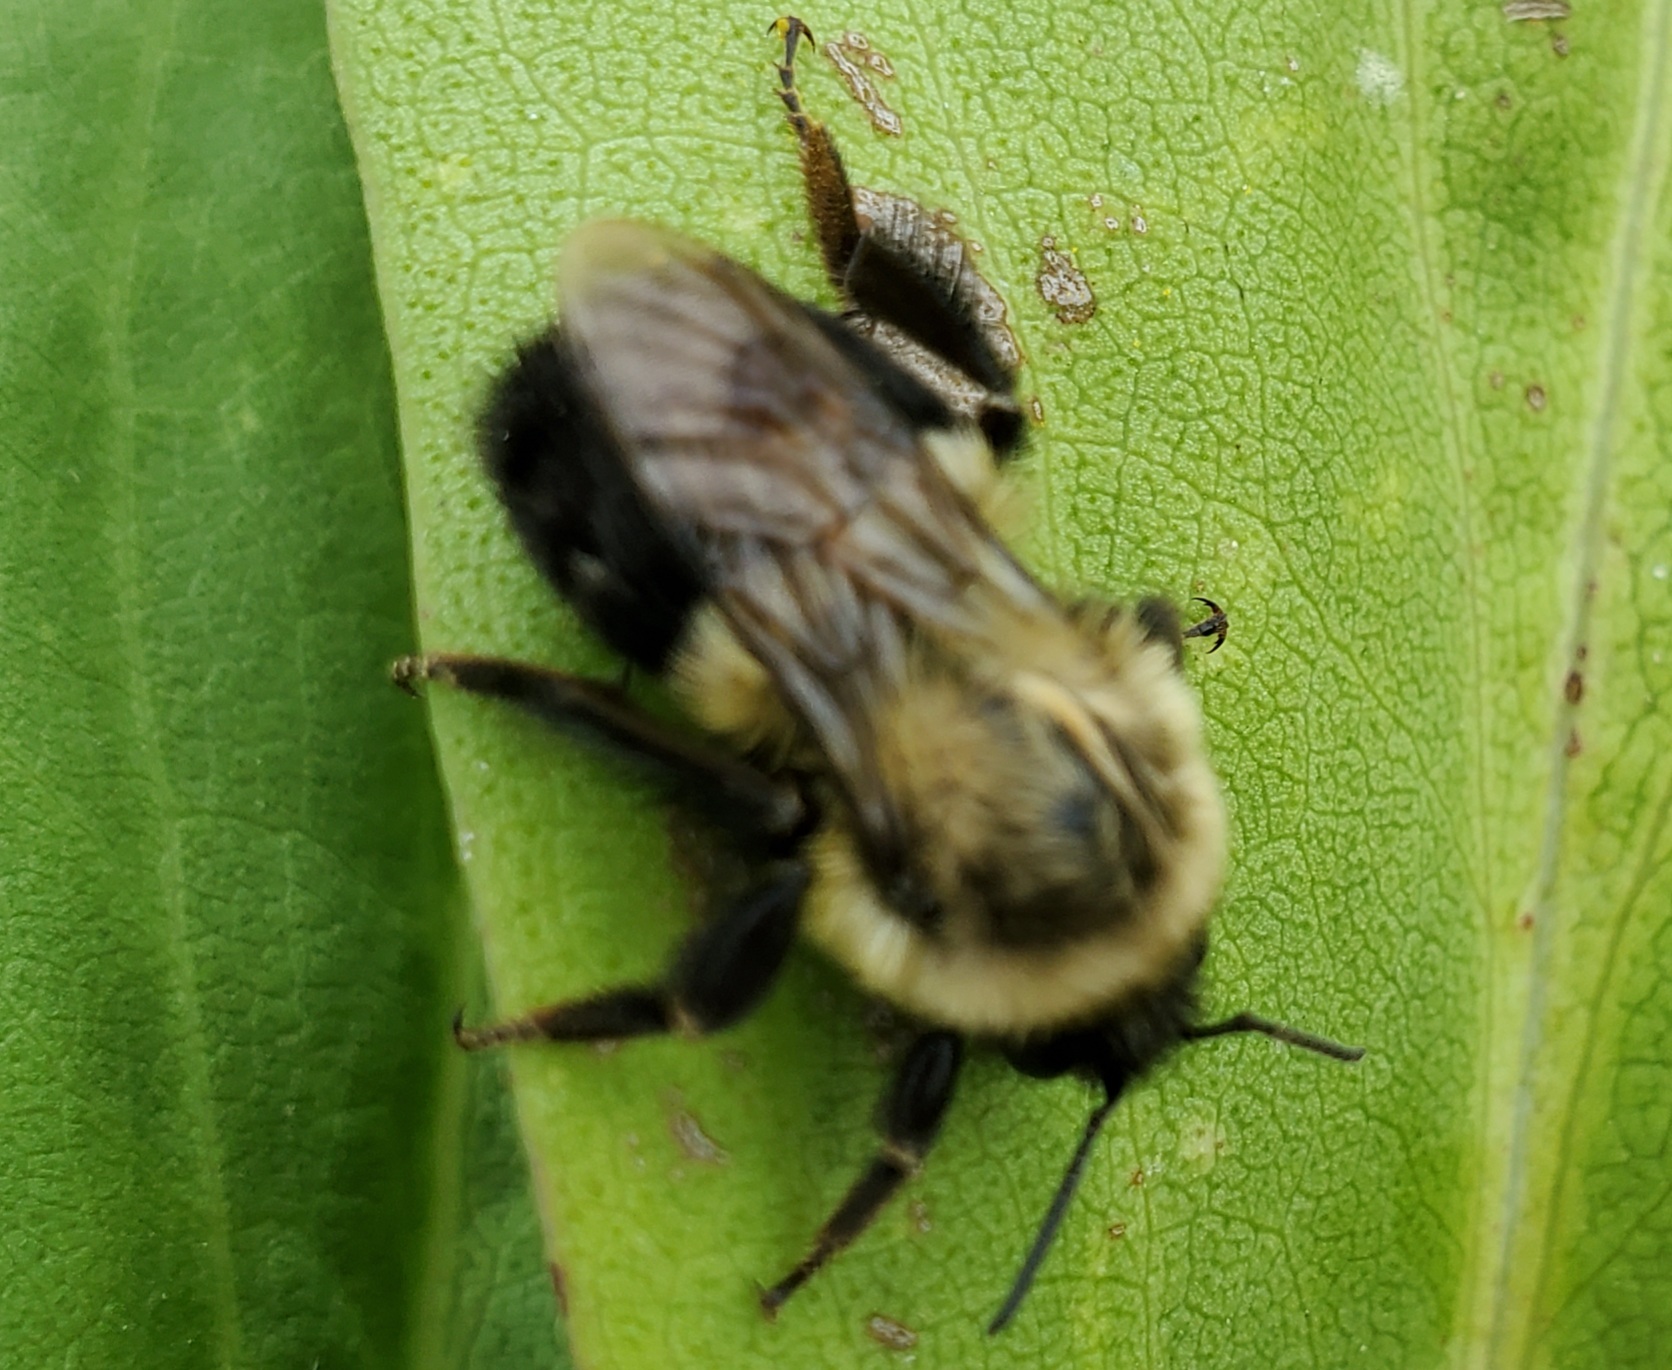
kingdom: Animalia
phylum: Arthropoda
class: Insecta
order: Hymenoptera
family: Apidae
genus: Bombus
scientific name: Bombus impatiens
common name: Common eastern bumble bee
